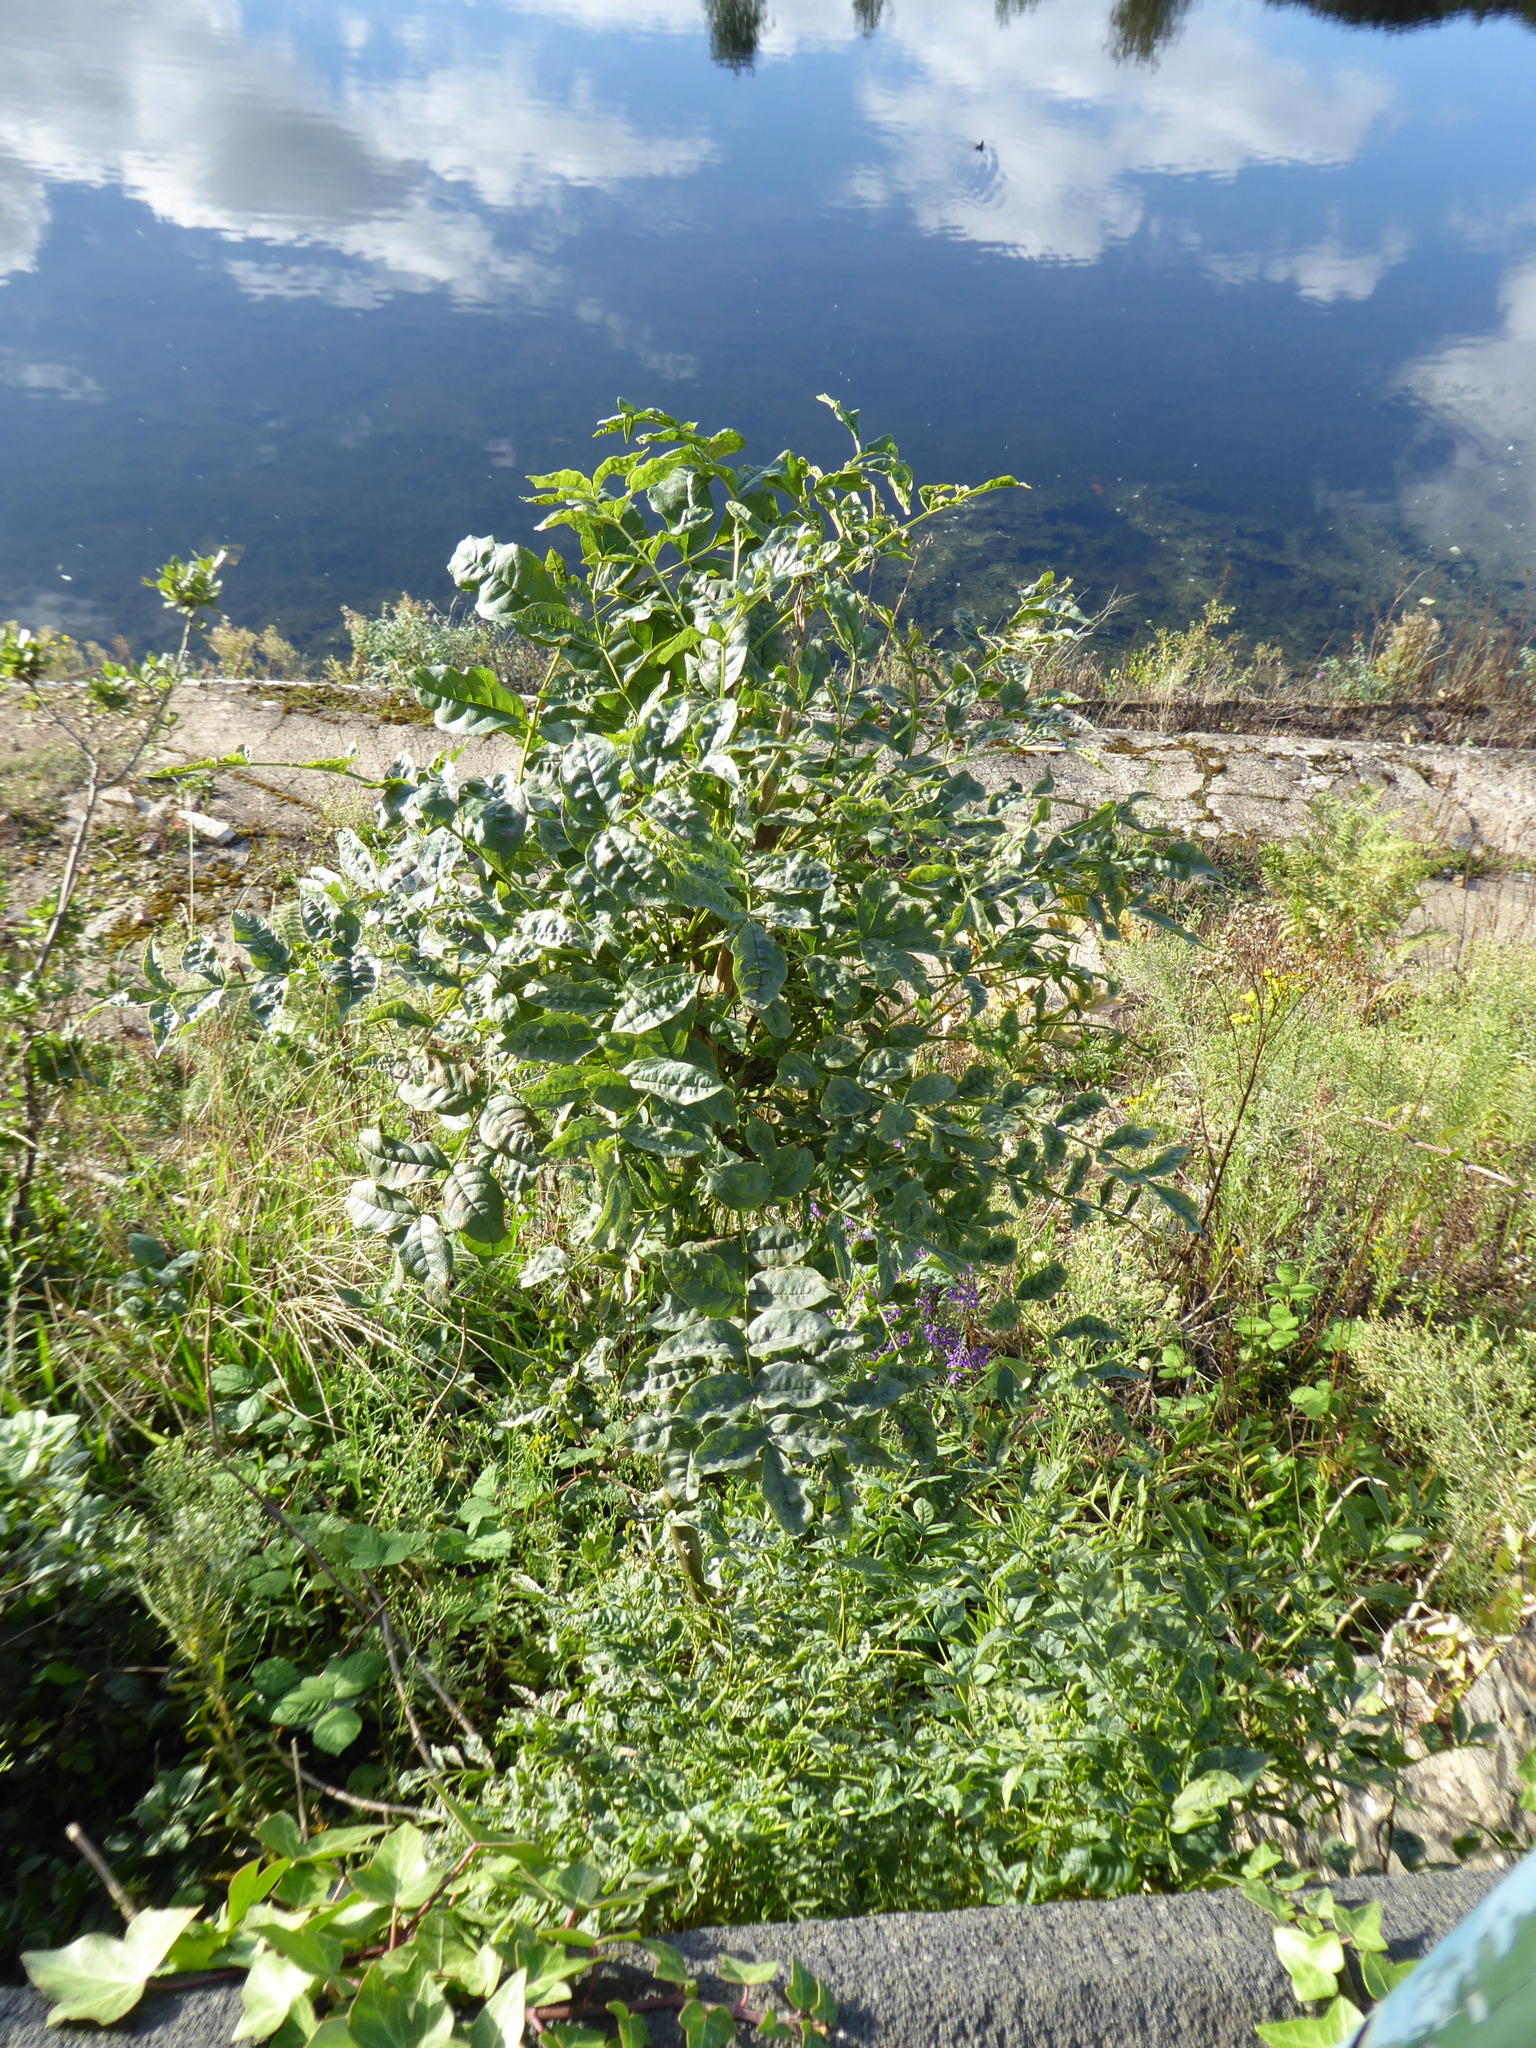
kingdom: Plantae
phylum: Tracheophyta
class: Magnoliopsida
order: Lamiales
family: Oleaceae
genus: Fraxinus
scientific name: Fraxinus excelsior
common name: European ash
